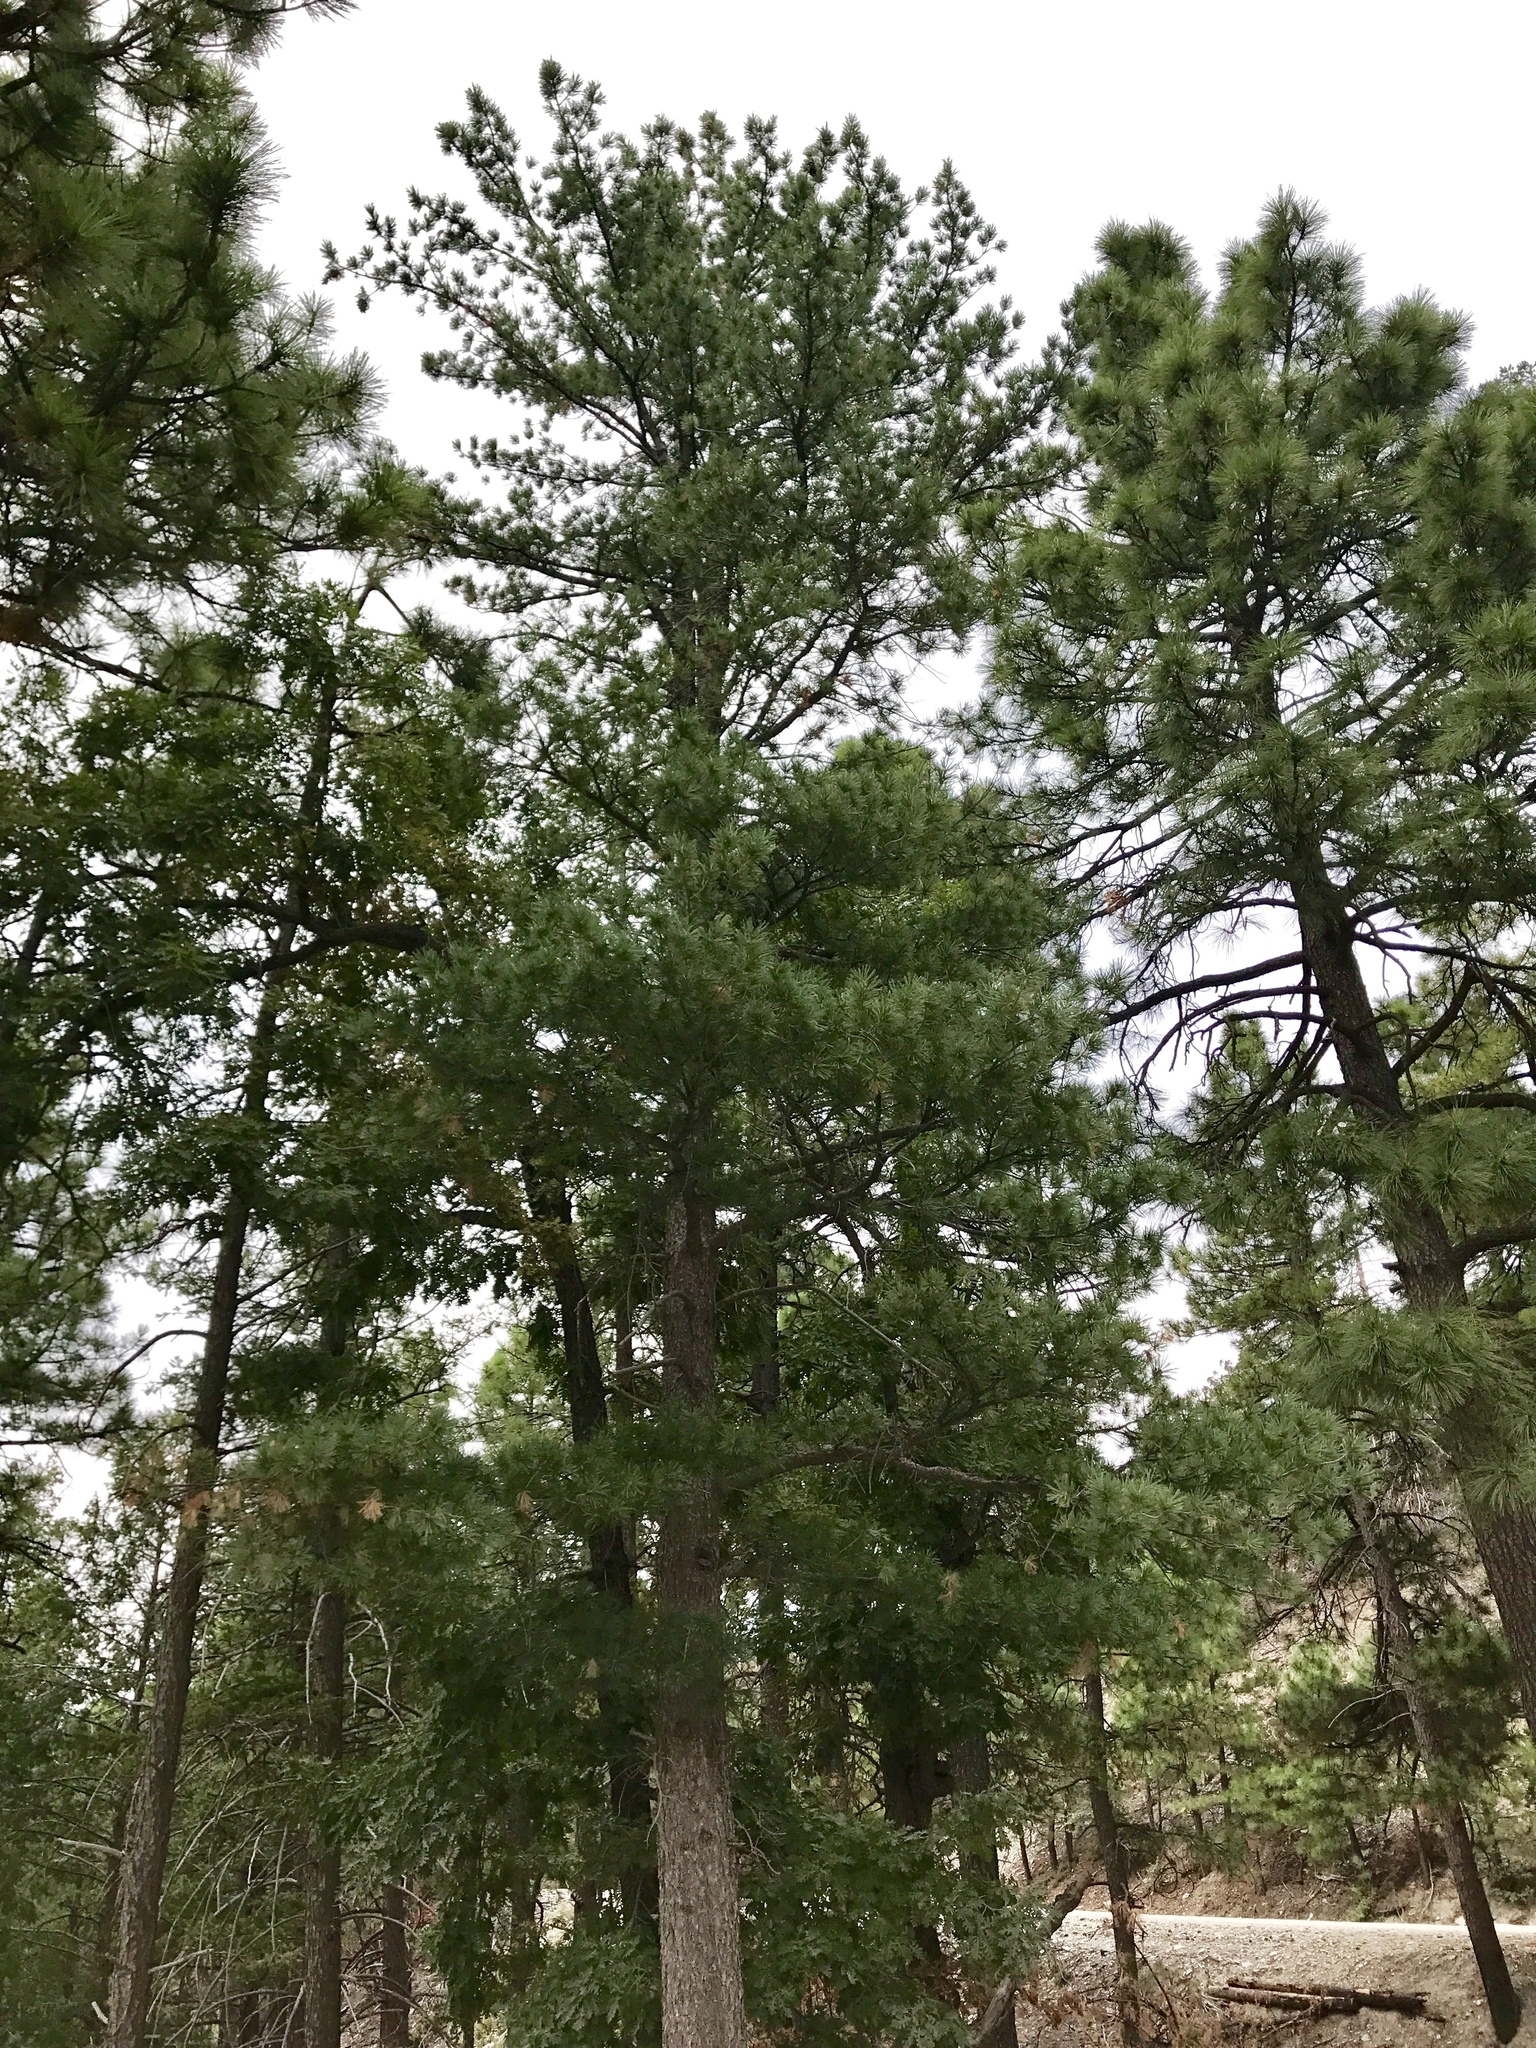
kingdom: Plantae
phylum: Tracheophyta
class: Pinopsida
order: Pinales
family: Pinaceae
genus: Pinus
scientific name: Pinus strobiformis
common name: Southwestern white pine
